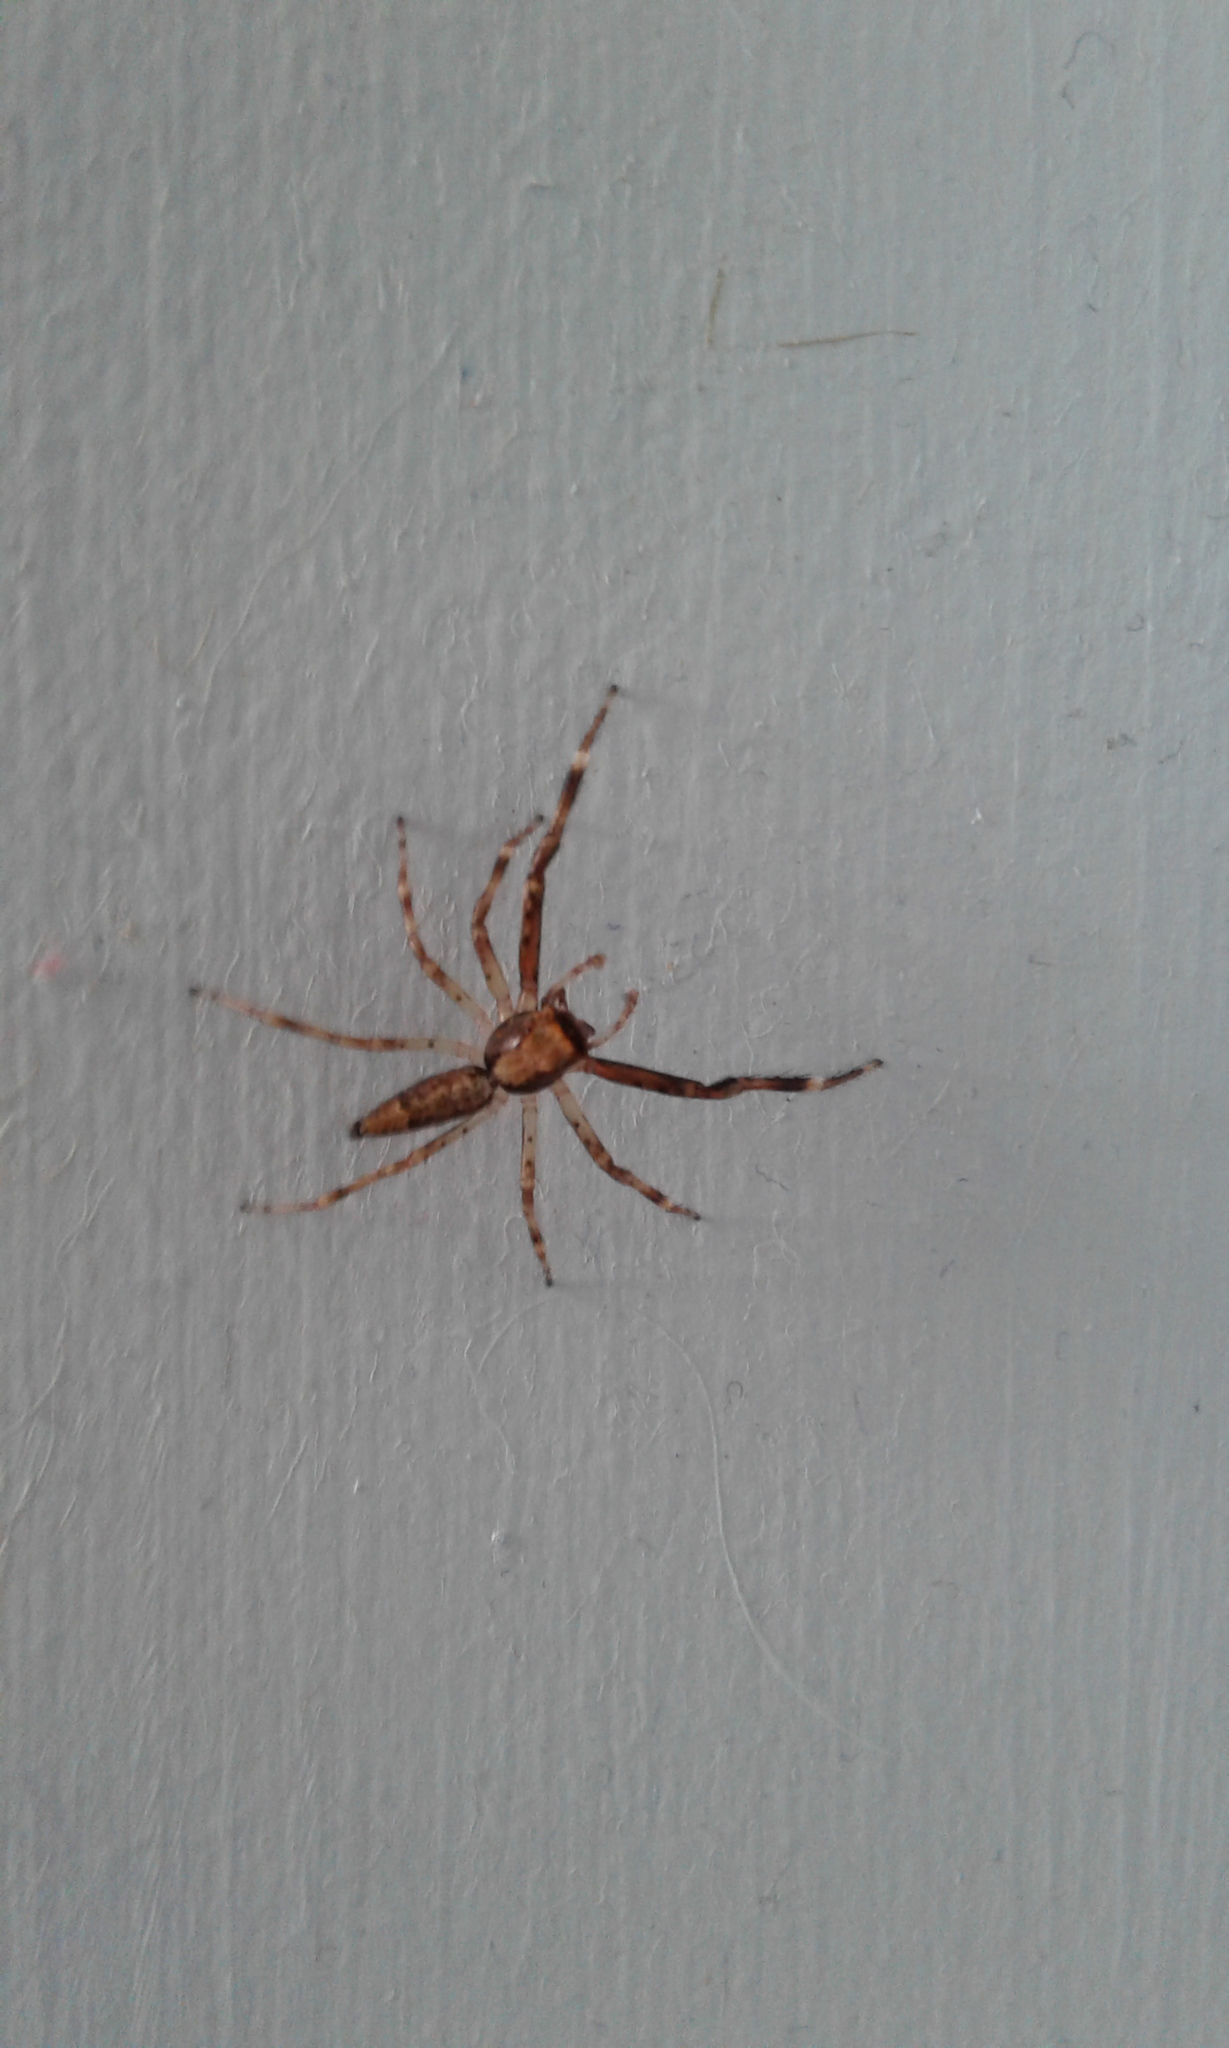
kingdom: Animalia
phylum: Arthropoda
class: Arachnida
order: Araneae
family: Salticidae
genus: Helpis
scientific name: Helpis minitabunda
